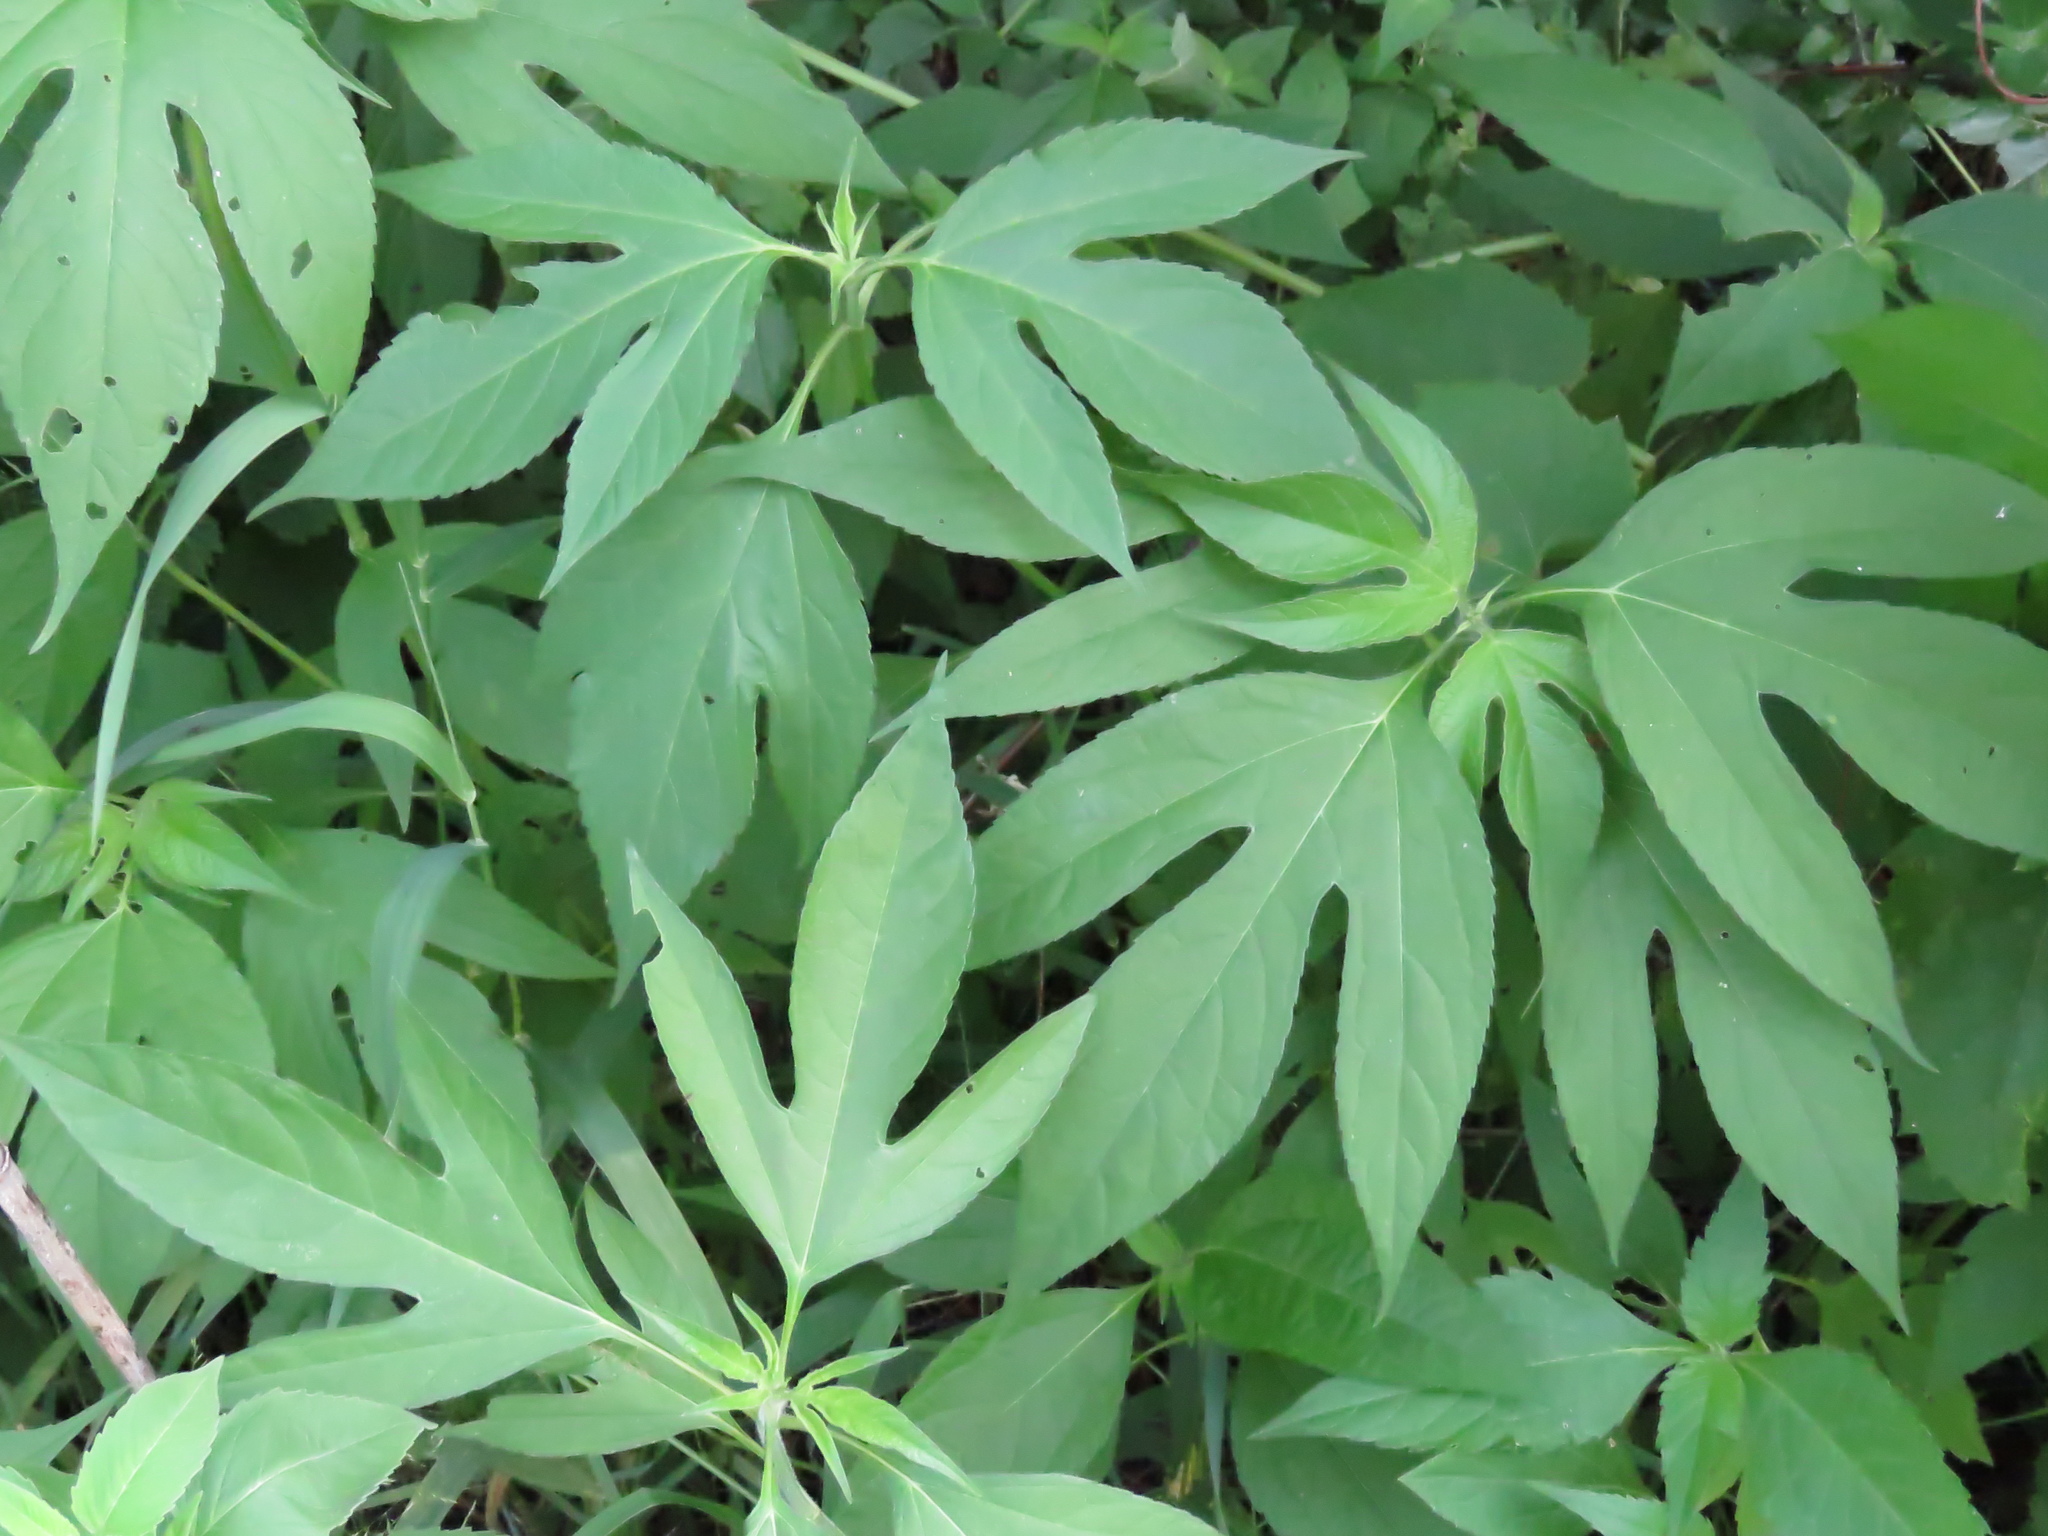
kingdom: Plantae
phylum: Tracheophyta
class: Magnoliopsida
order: Asterales
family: Asteraceae
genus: Ambrosia
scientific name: Ambrosia trifida
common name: Giant ragweed
